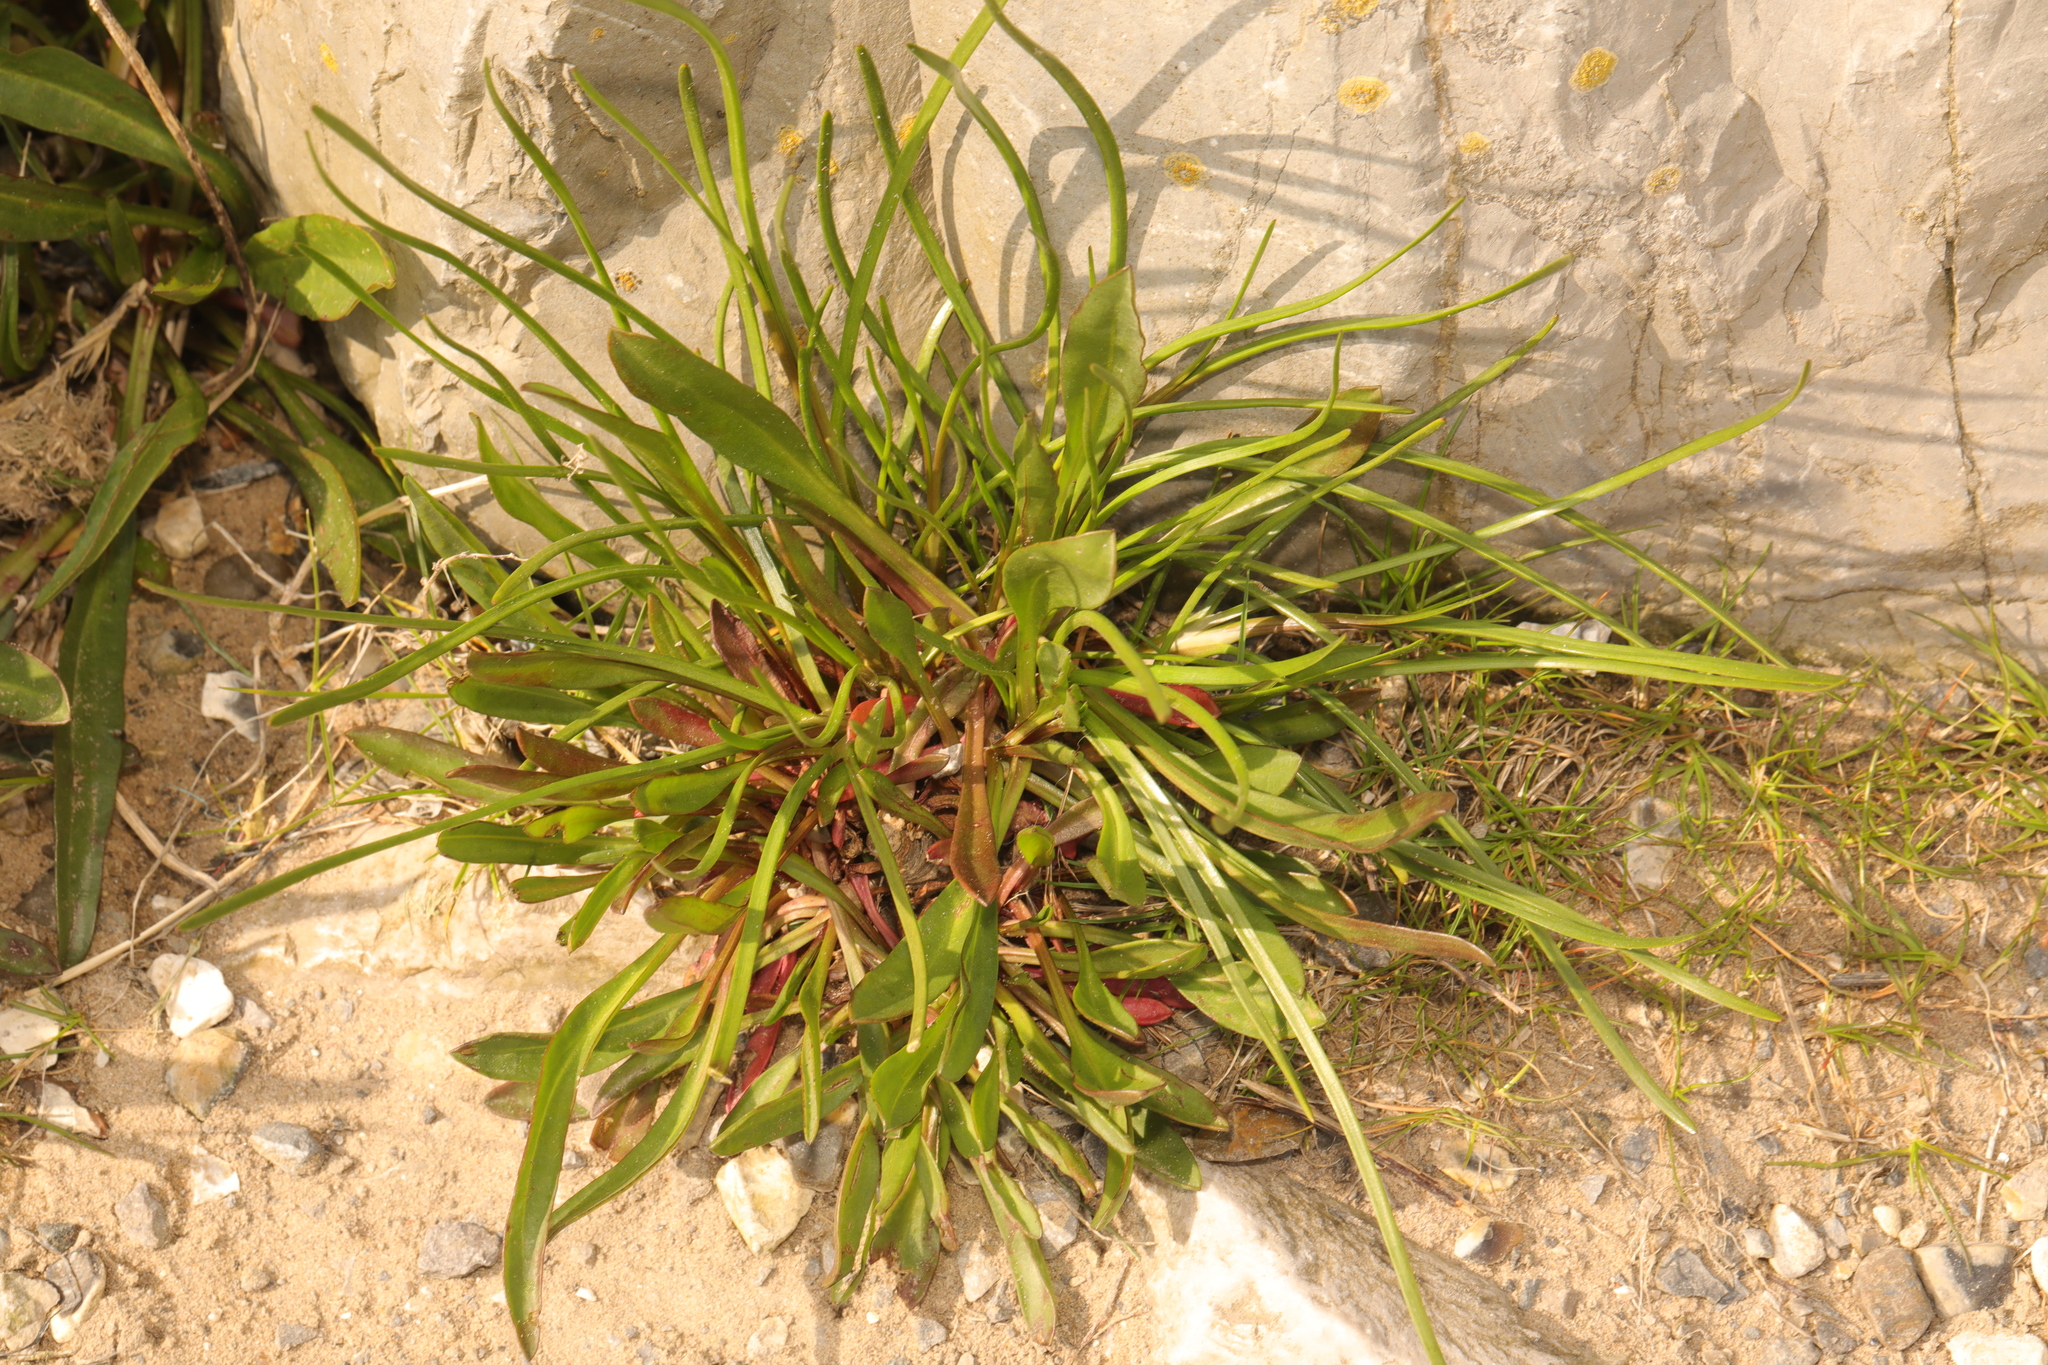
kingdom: Plantae
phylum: Tracheophyta
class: Magnoliopsida
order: Lamiales
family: Plantaginaceae
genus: Plantago
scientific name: Plantago maritima
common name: Sea plantain
